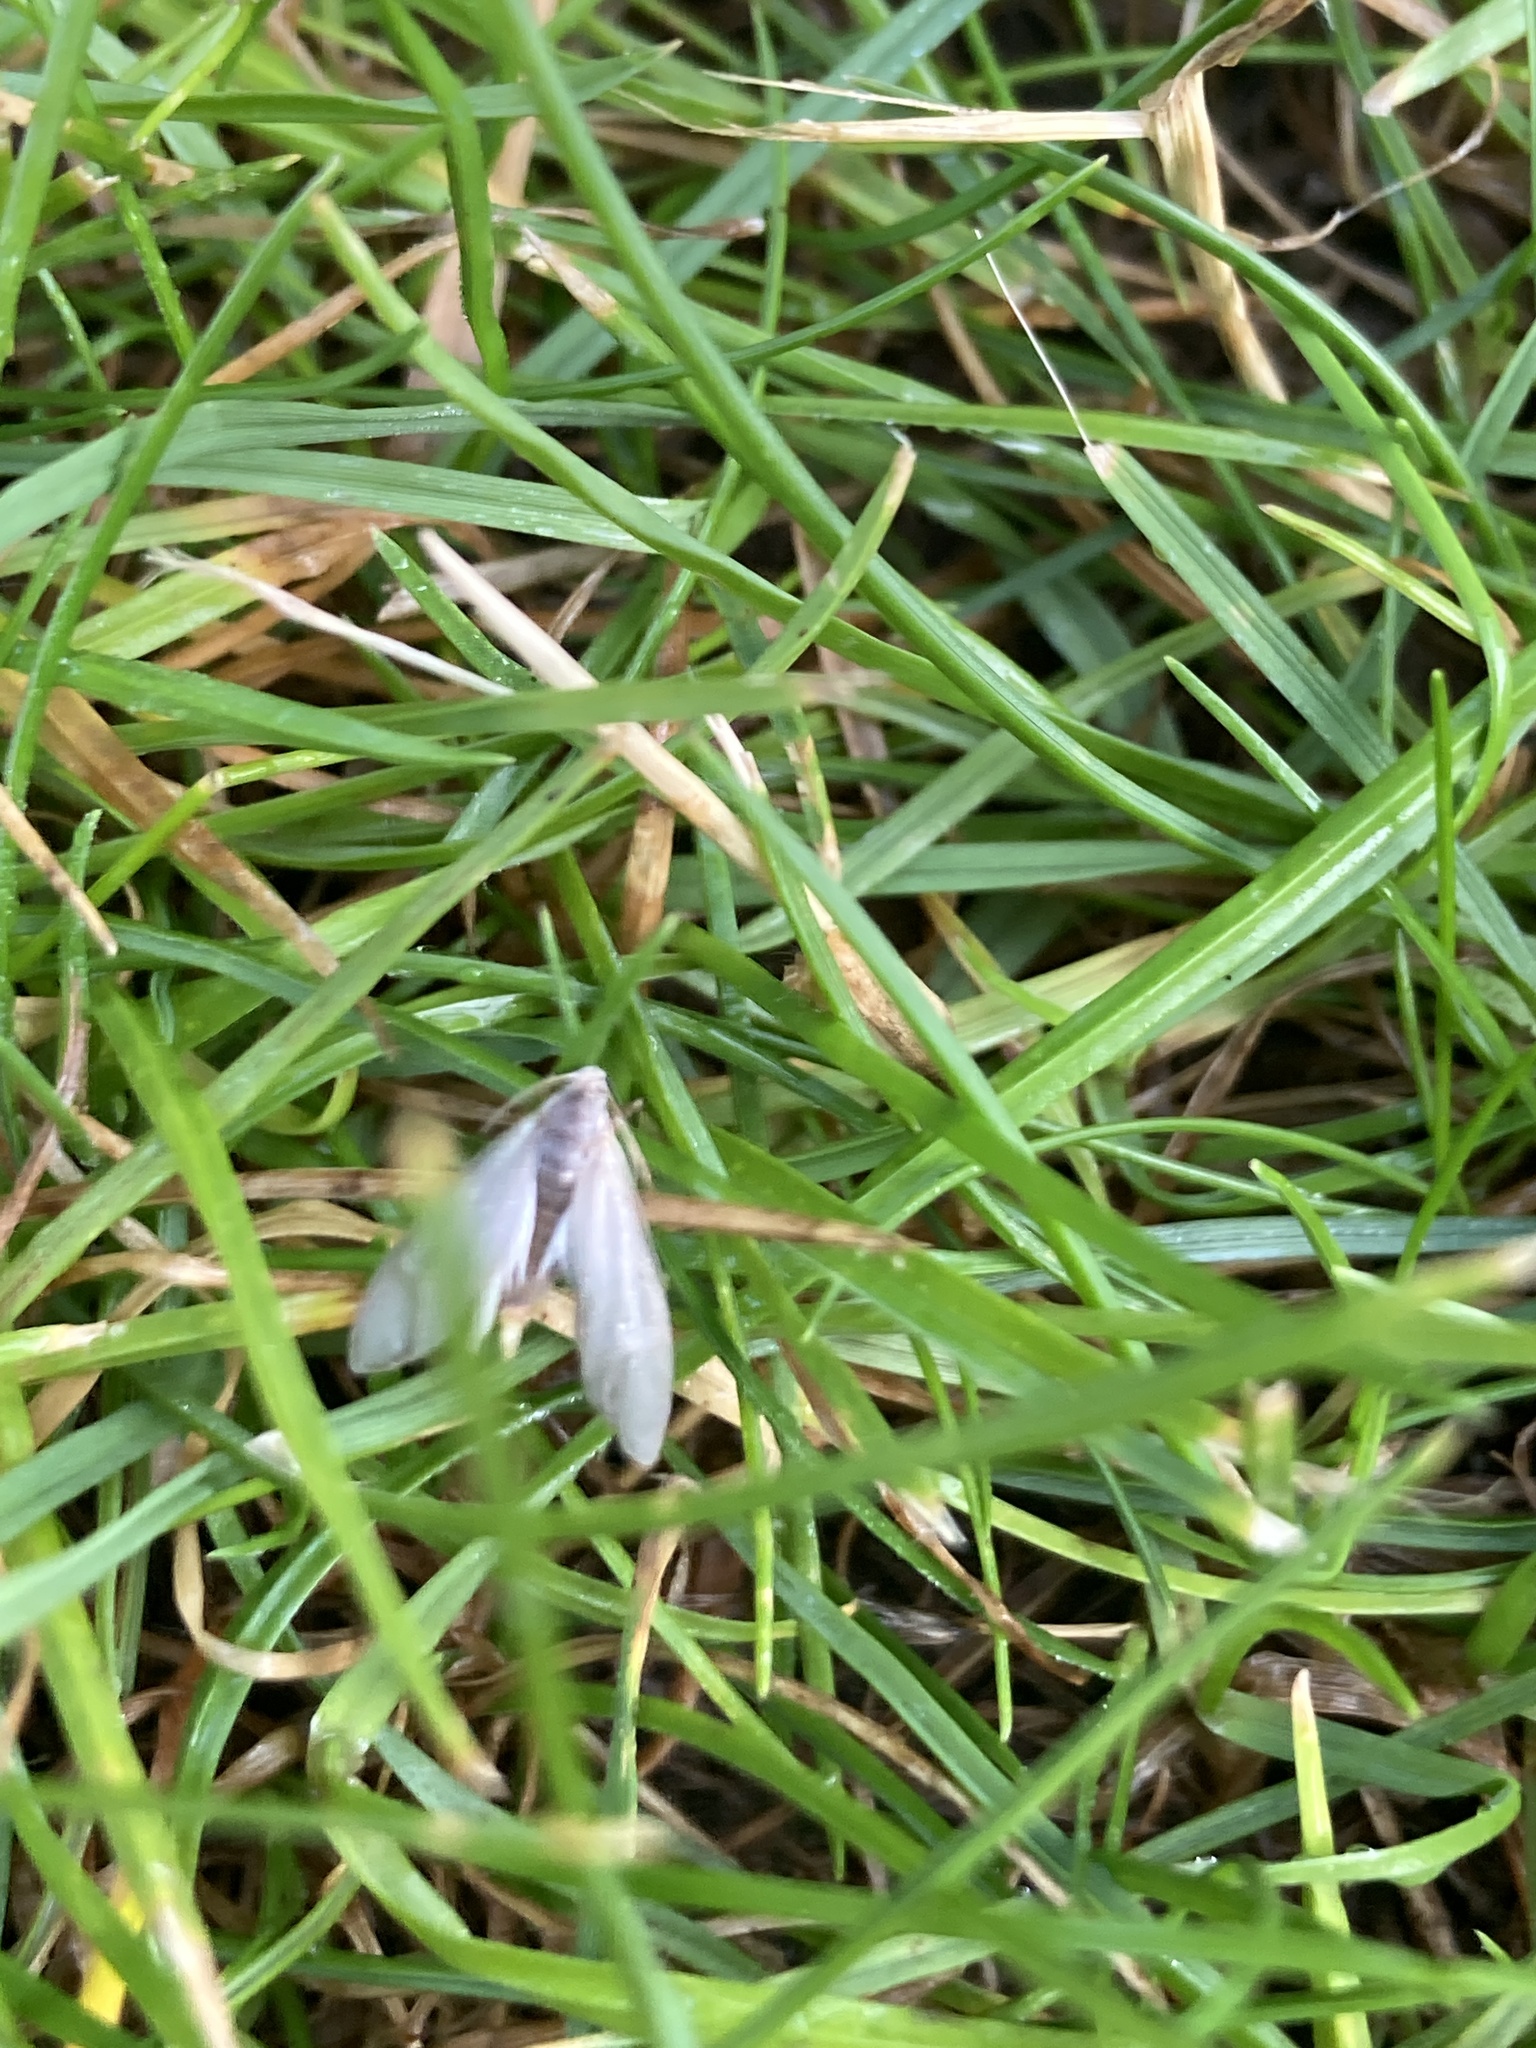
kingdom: Animalia
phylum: Arthropoda
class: Insecta
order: Lepidoptera
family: Crambidae
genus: Acentria
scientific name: Acentria ephemerella
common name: European water moth
